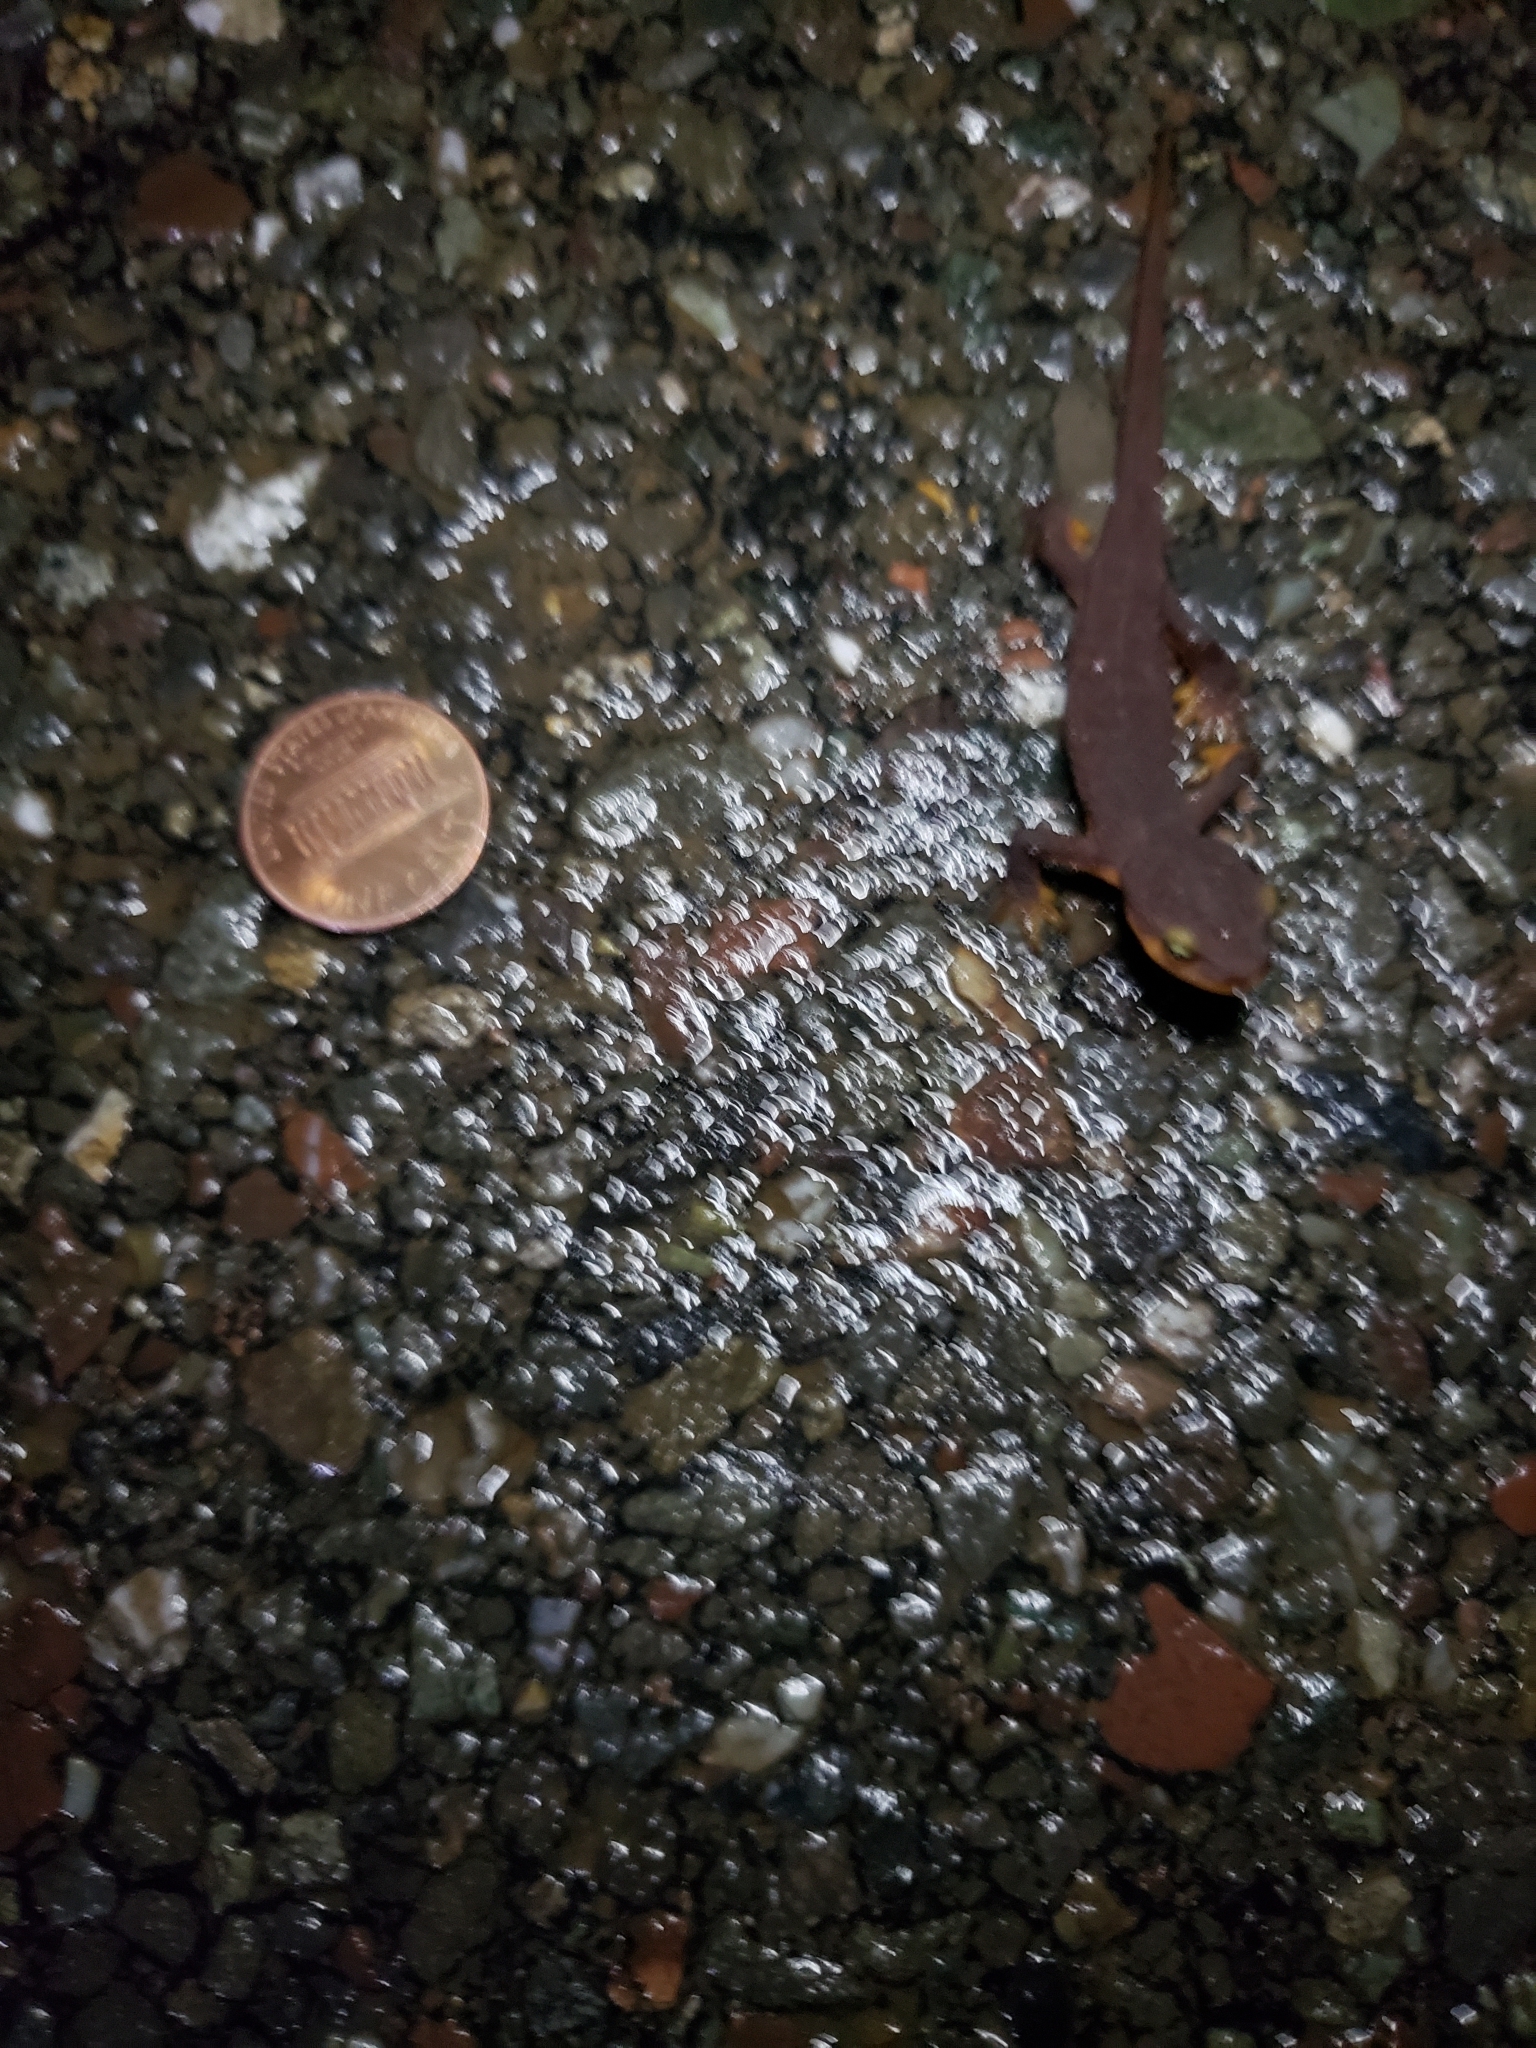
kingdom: Animalia
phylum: Chordata
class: Amphibia
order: Caudata
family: Salamandridae
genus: Taricha
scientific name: Taricha torosa
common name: California newt
